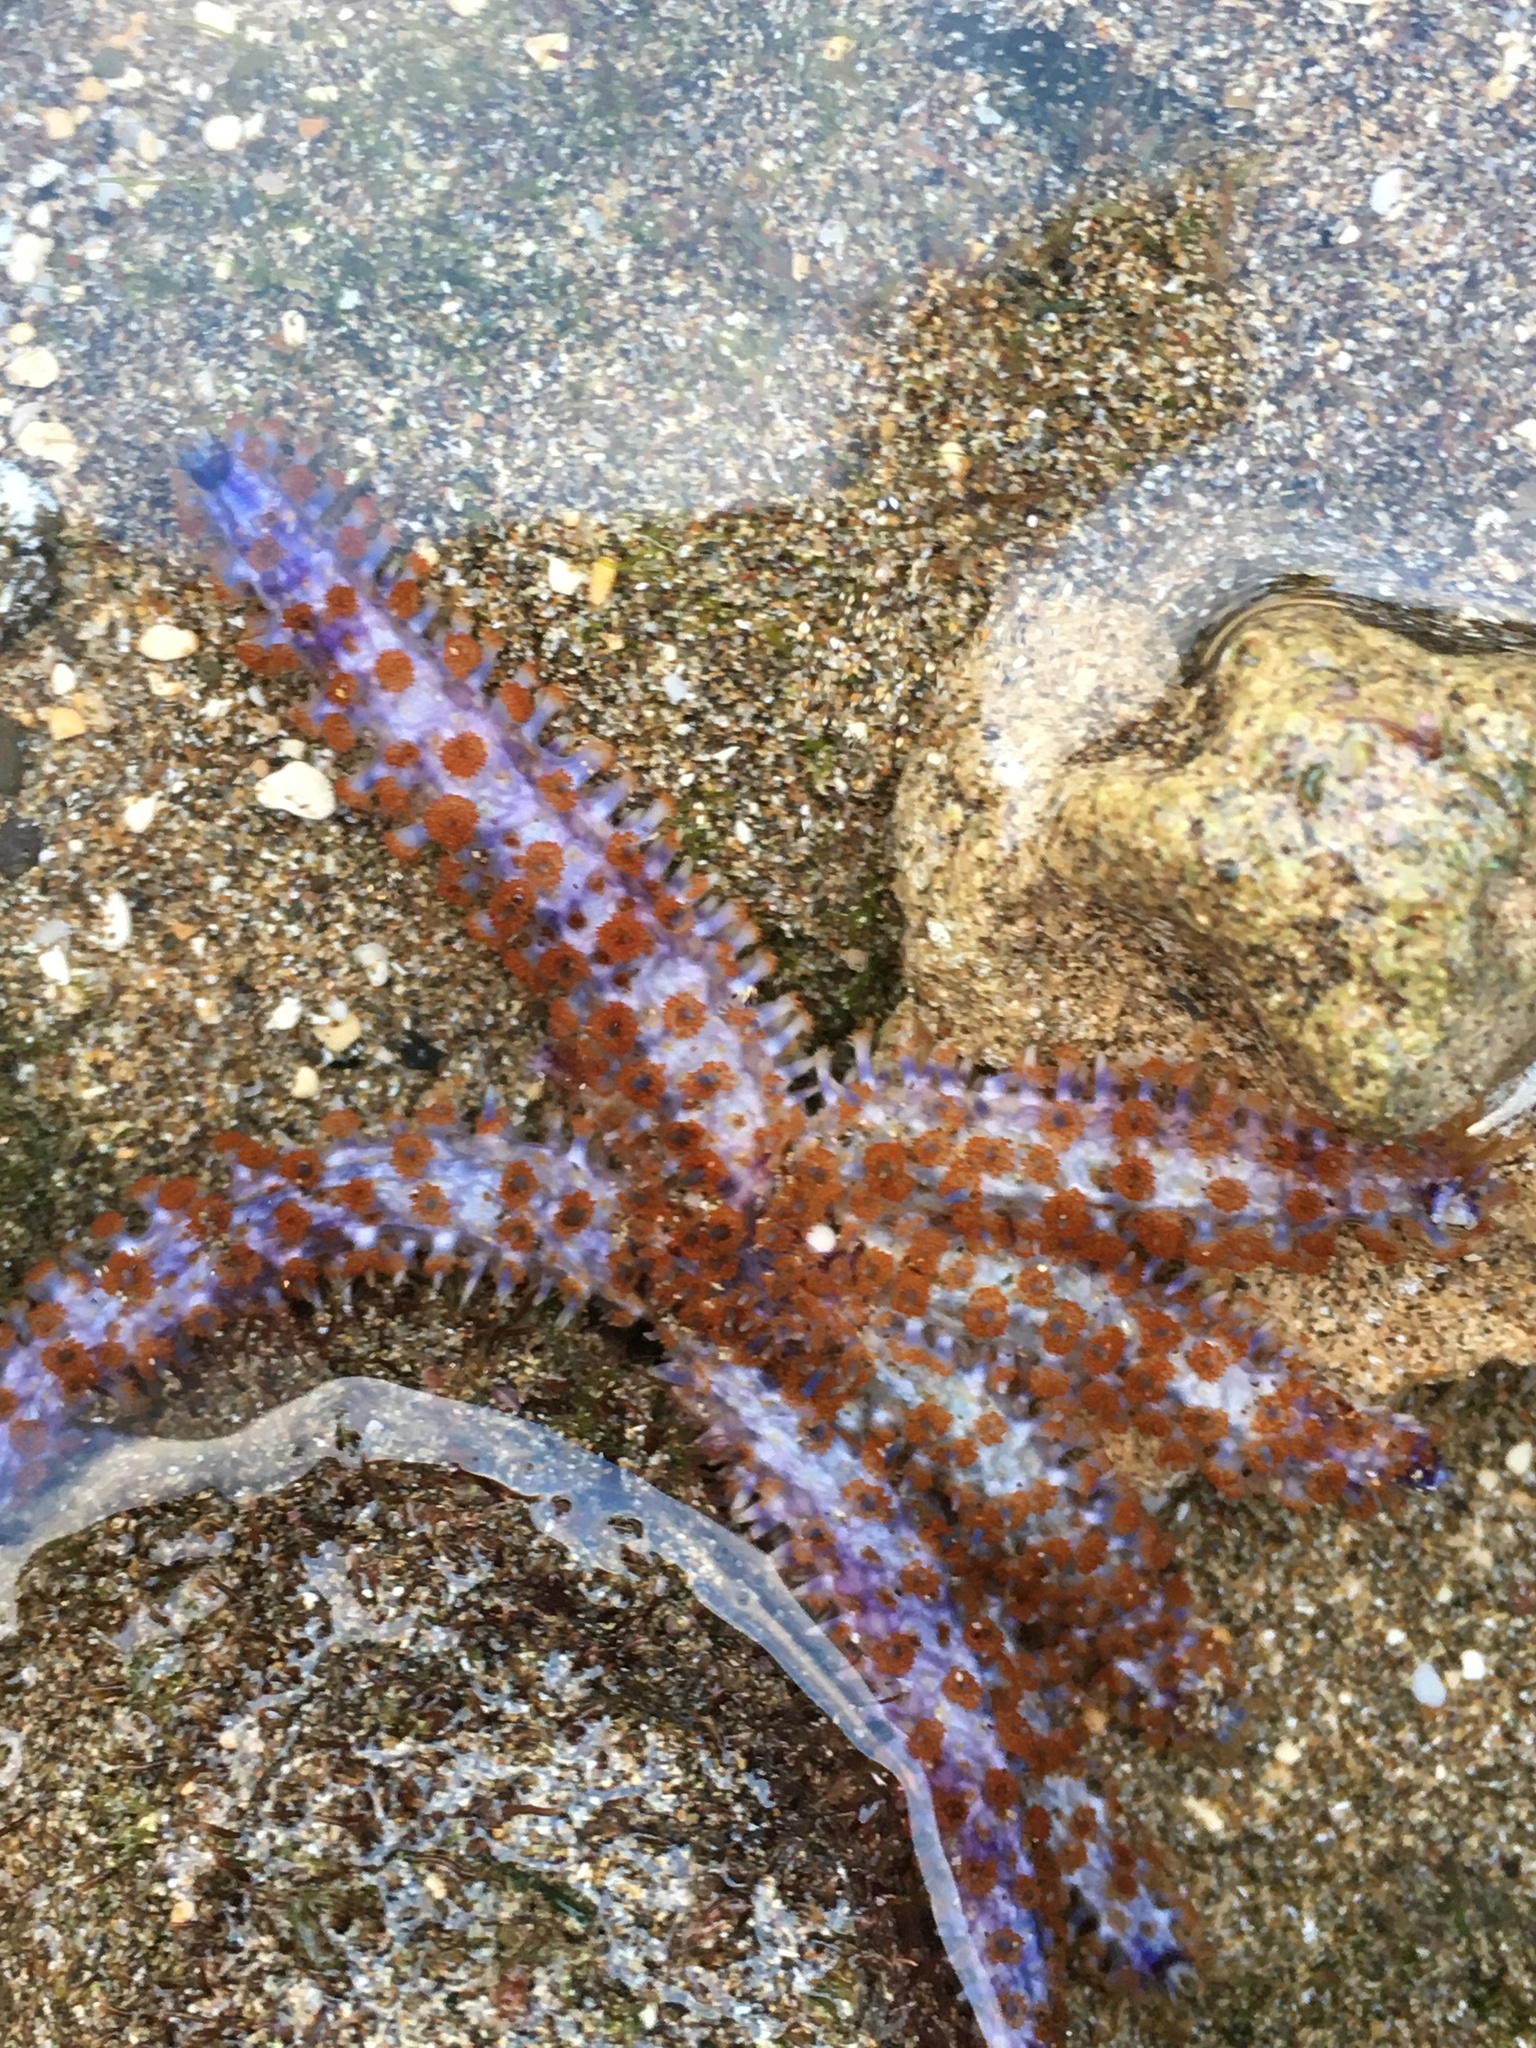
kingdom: Animalia
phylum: Echinodermata
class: Asteroidea
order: Forcipulatida
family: Asteriidae
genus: Coscinasterias
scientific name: Coscinasterias tenuispina
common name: Blue spiny starfish
